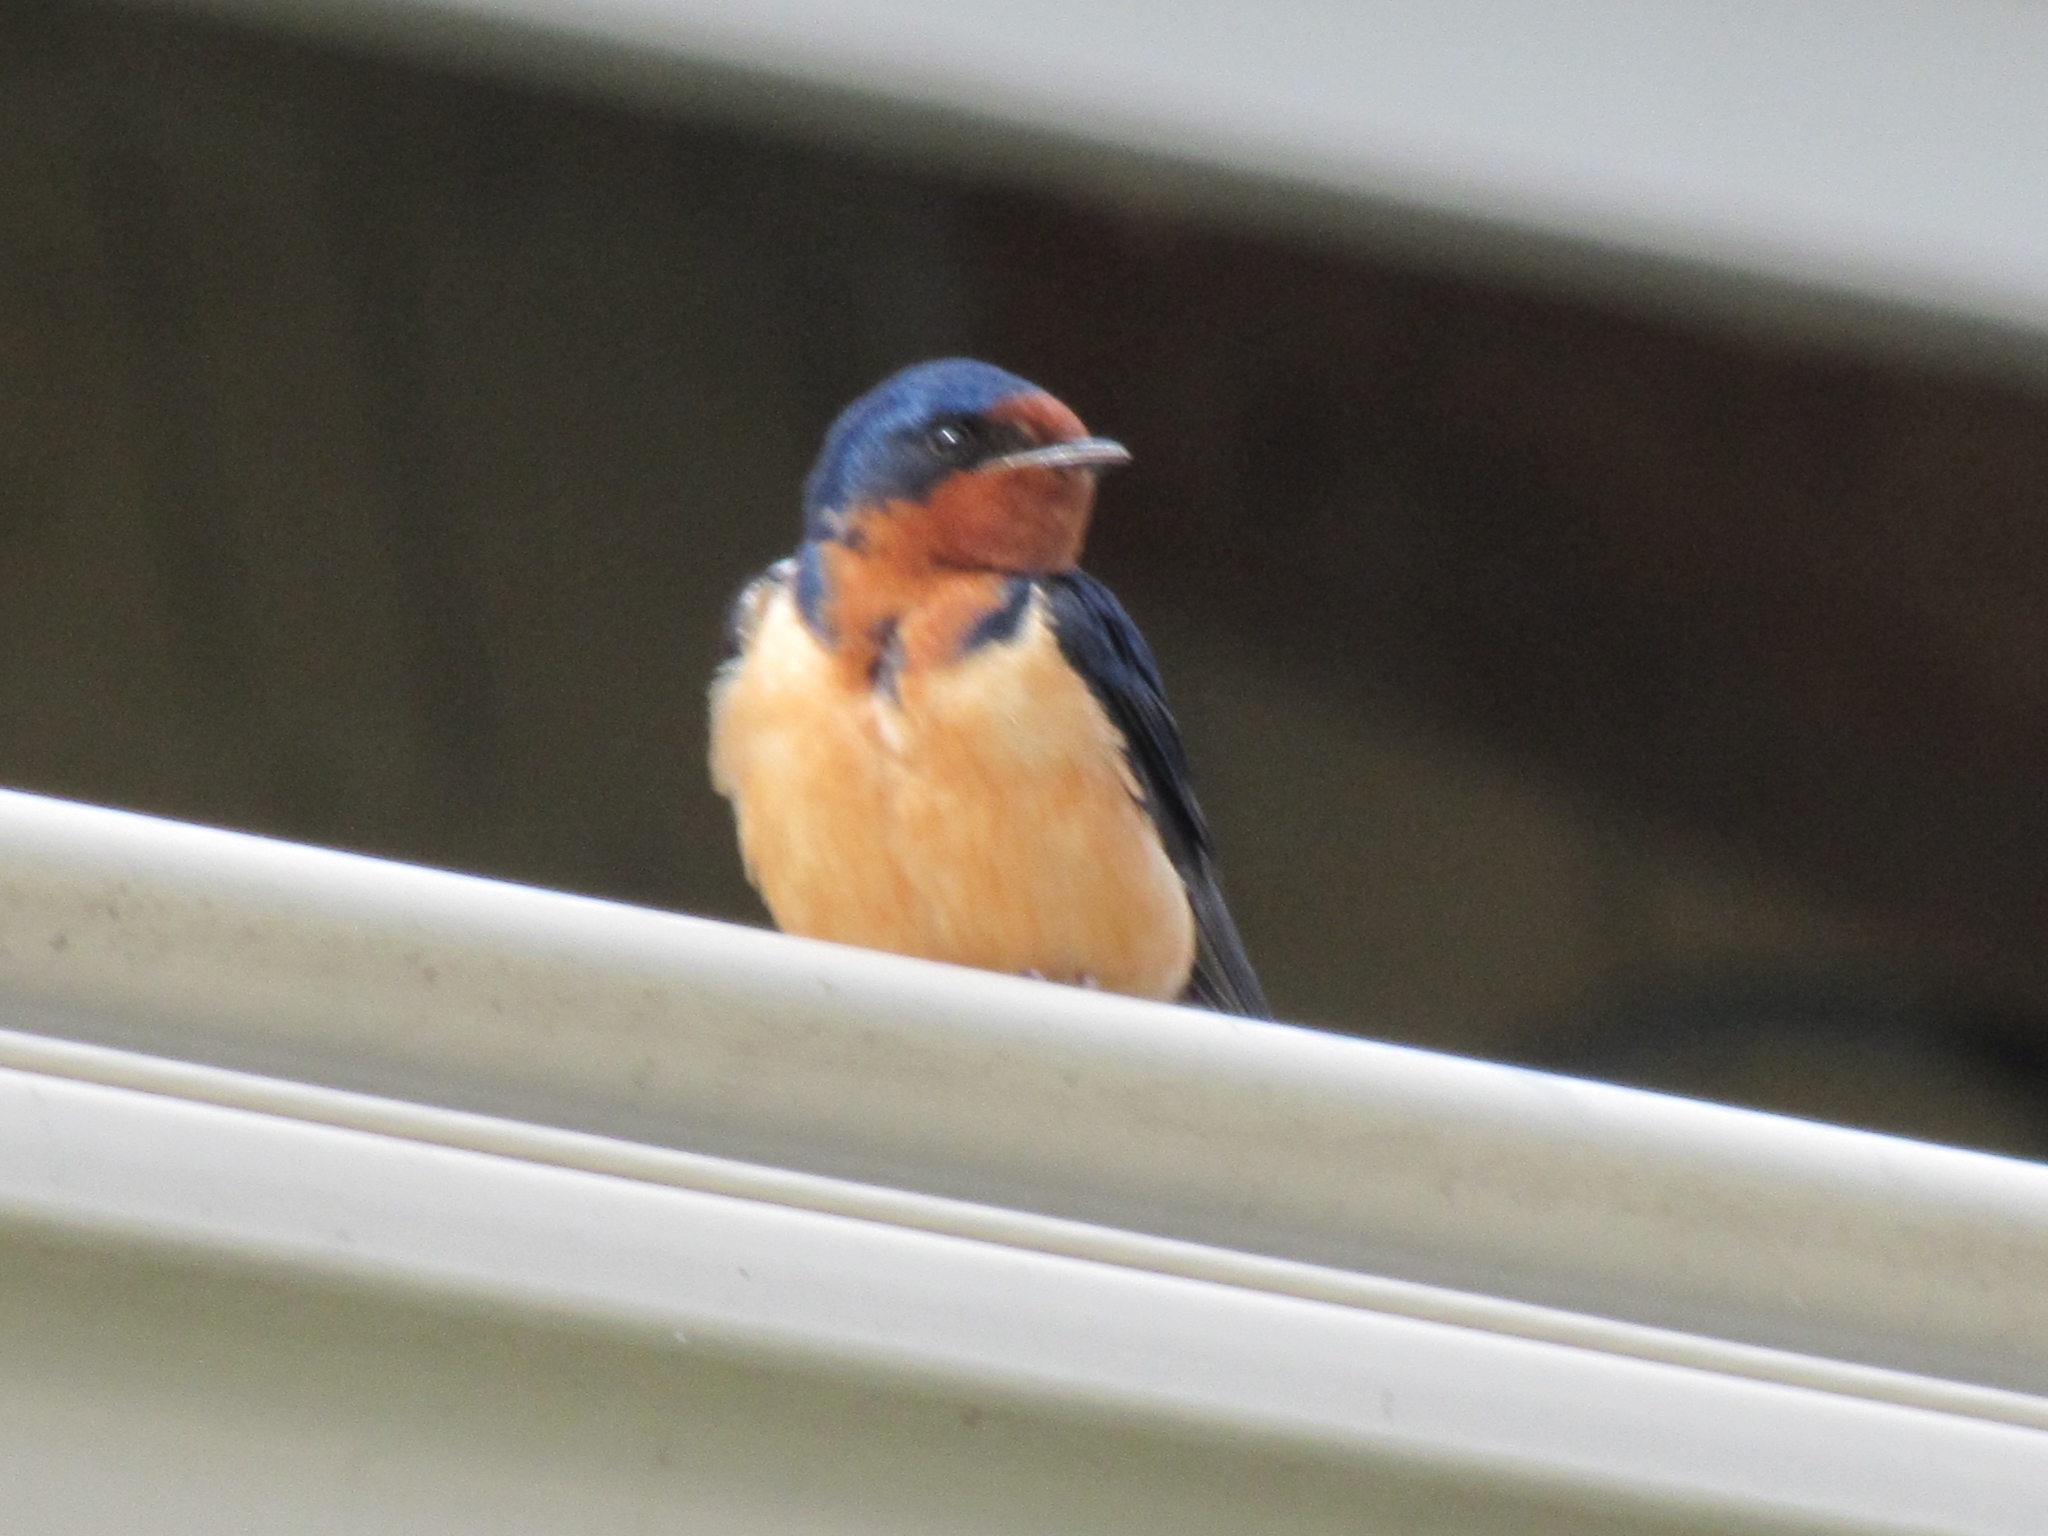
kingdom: Animalia
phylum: Chordata
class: Aves
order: Passeriformes
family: Hirundinidae
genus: Hirundo
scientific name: Hirundo rustica
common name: Barn swallow
